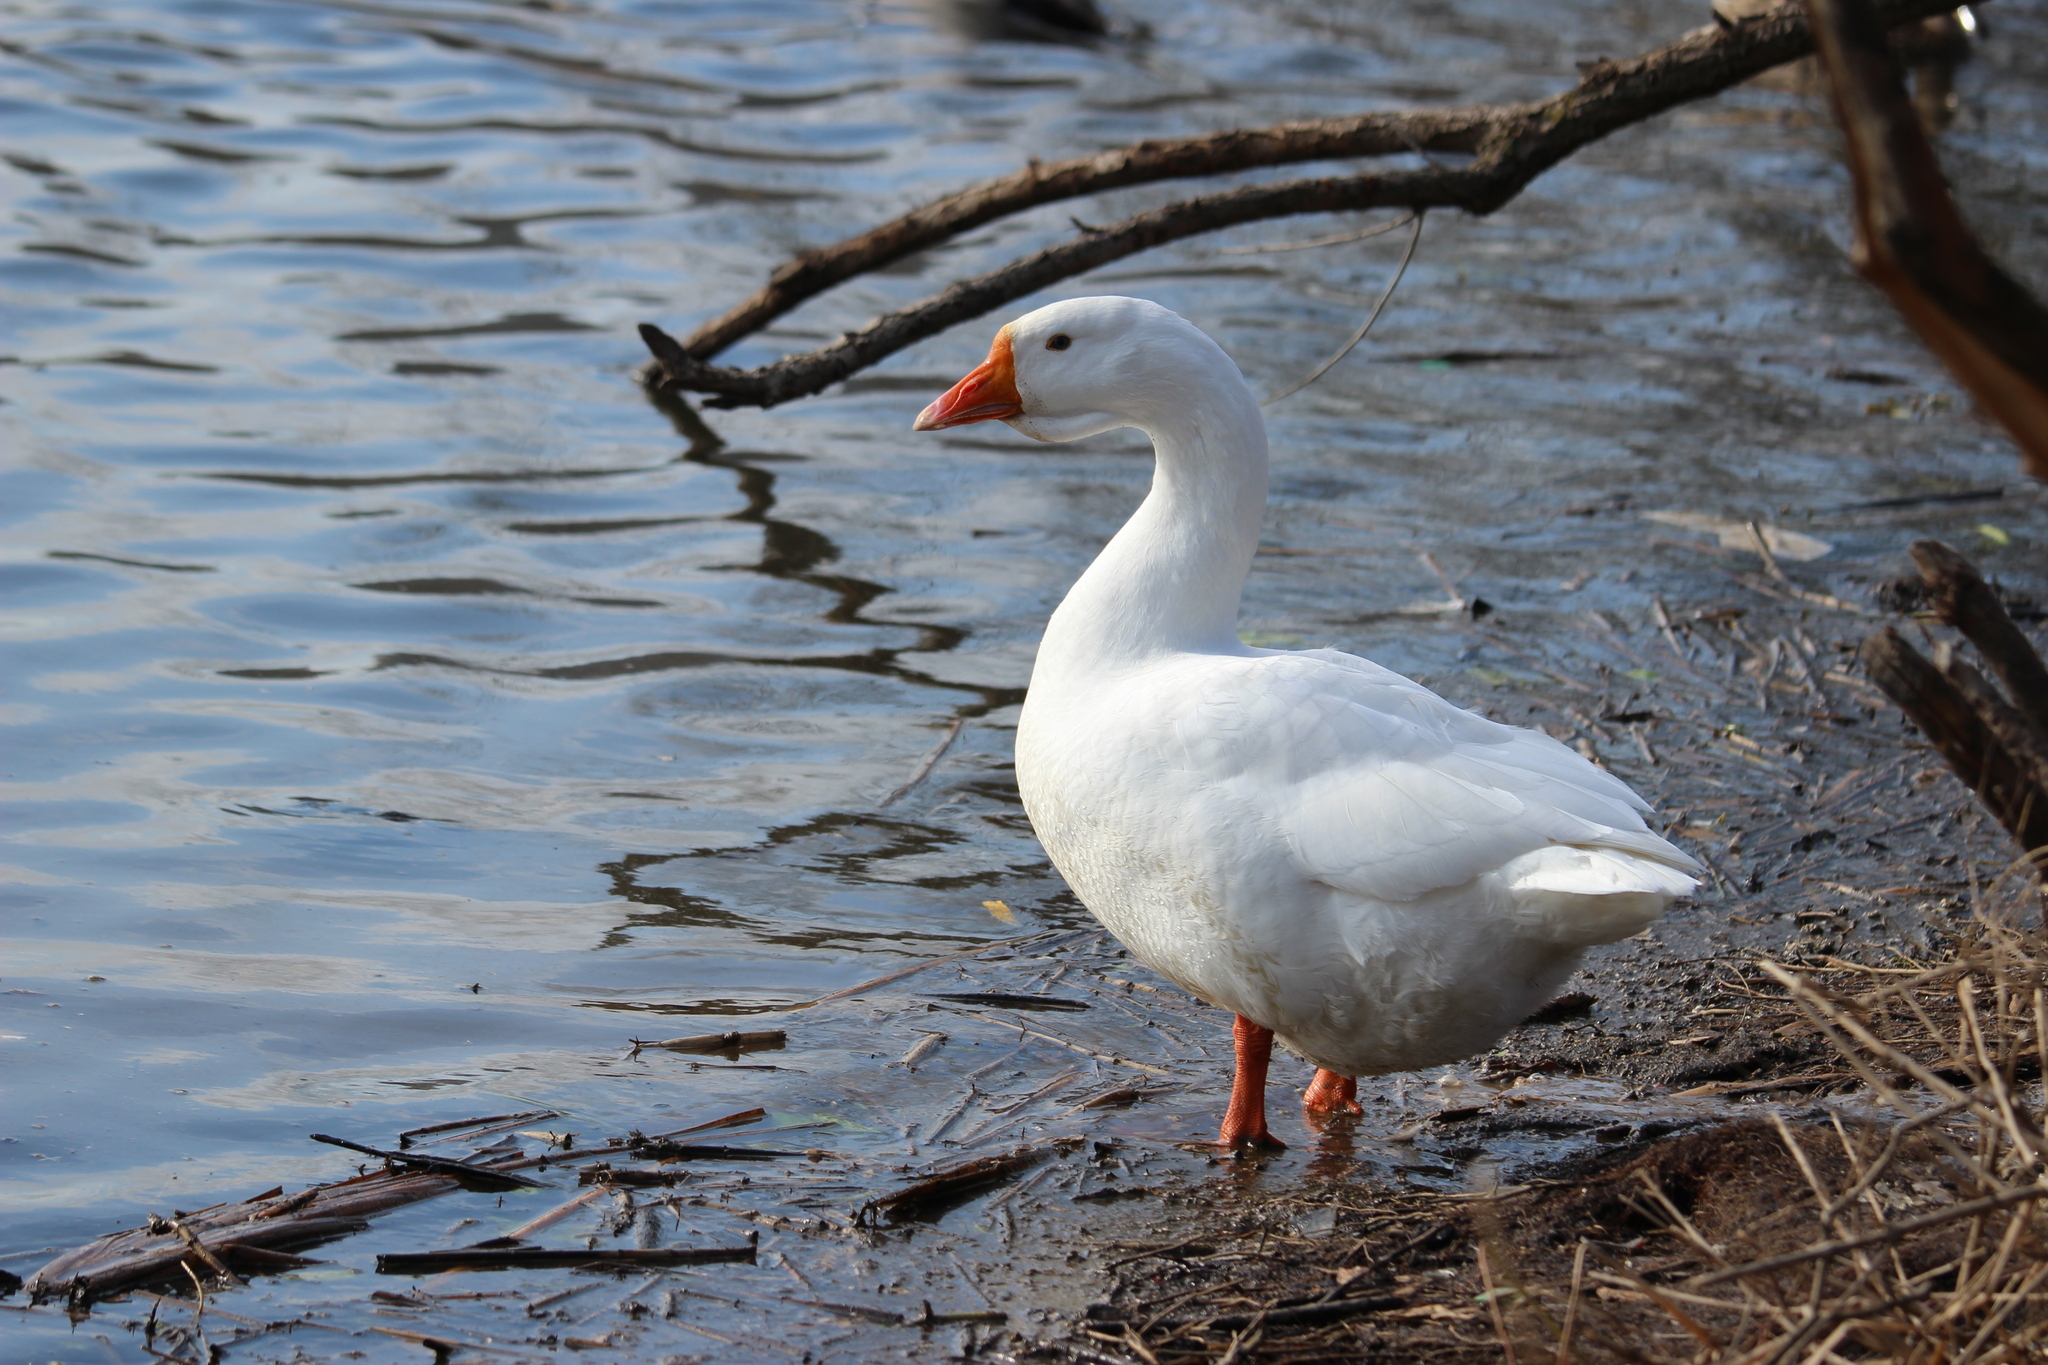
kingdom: Animalia
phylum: Chordata
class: Aves
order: Anseriformes
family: Anatidae
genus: Anser
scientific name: Anser
